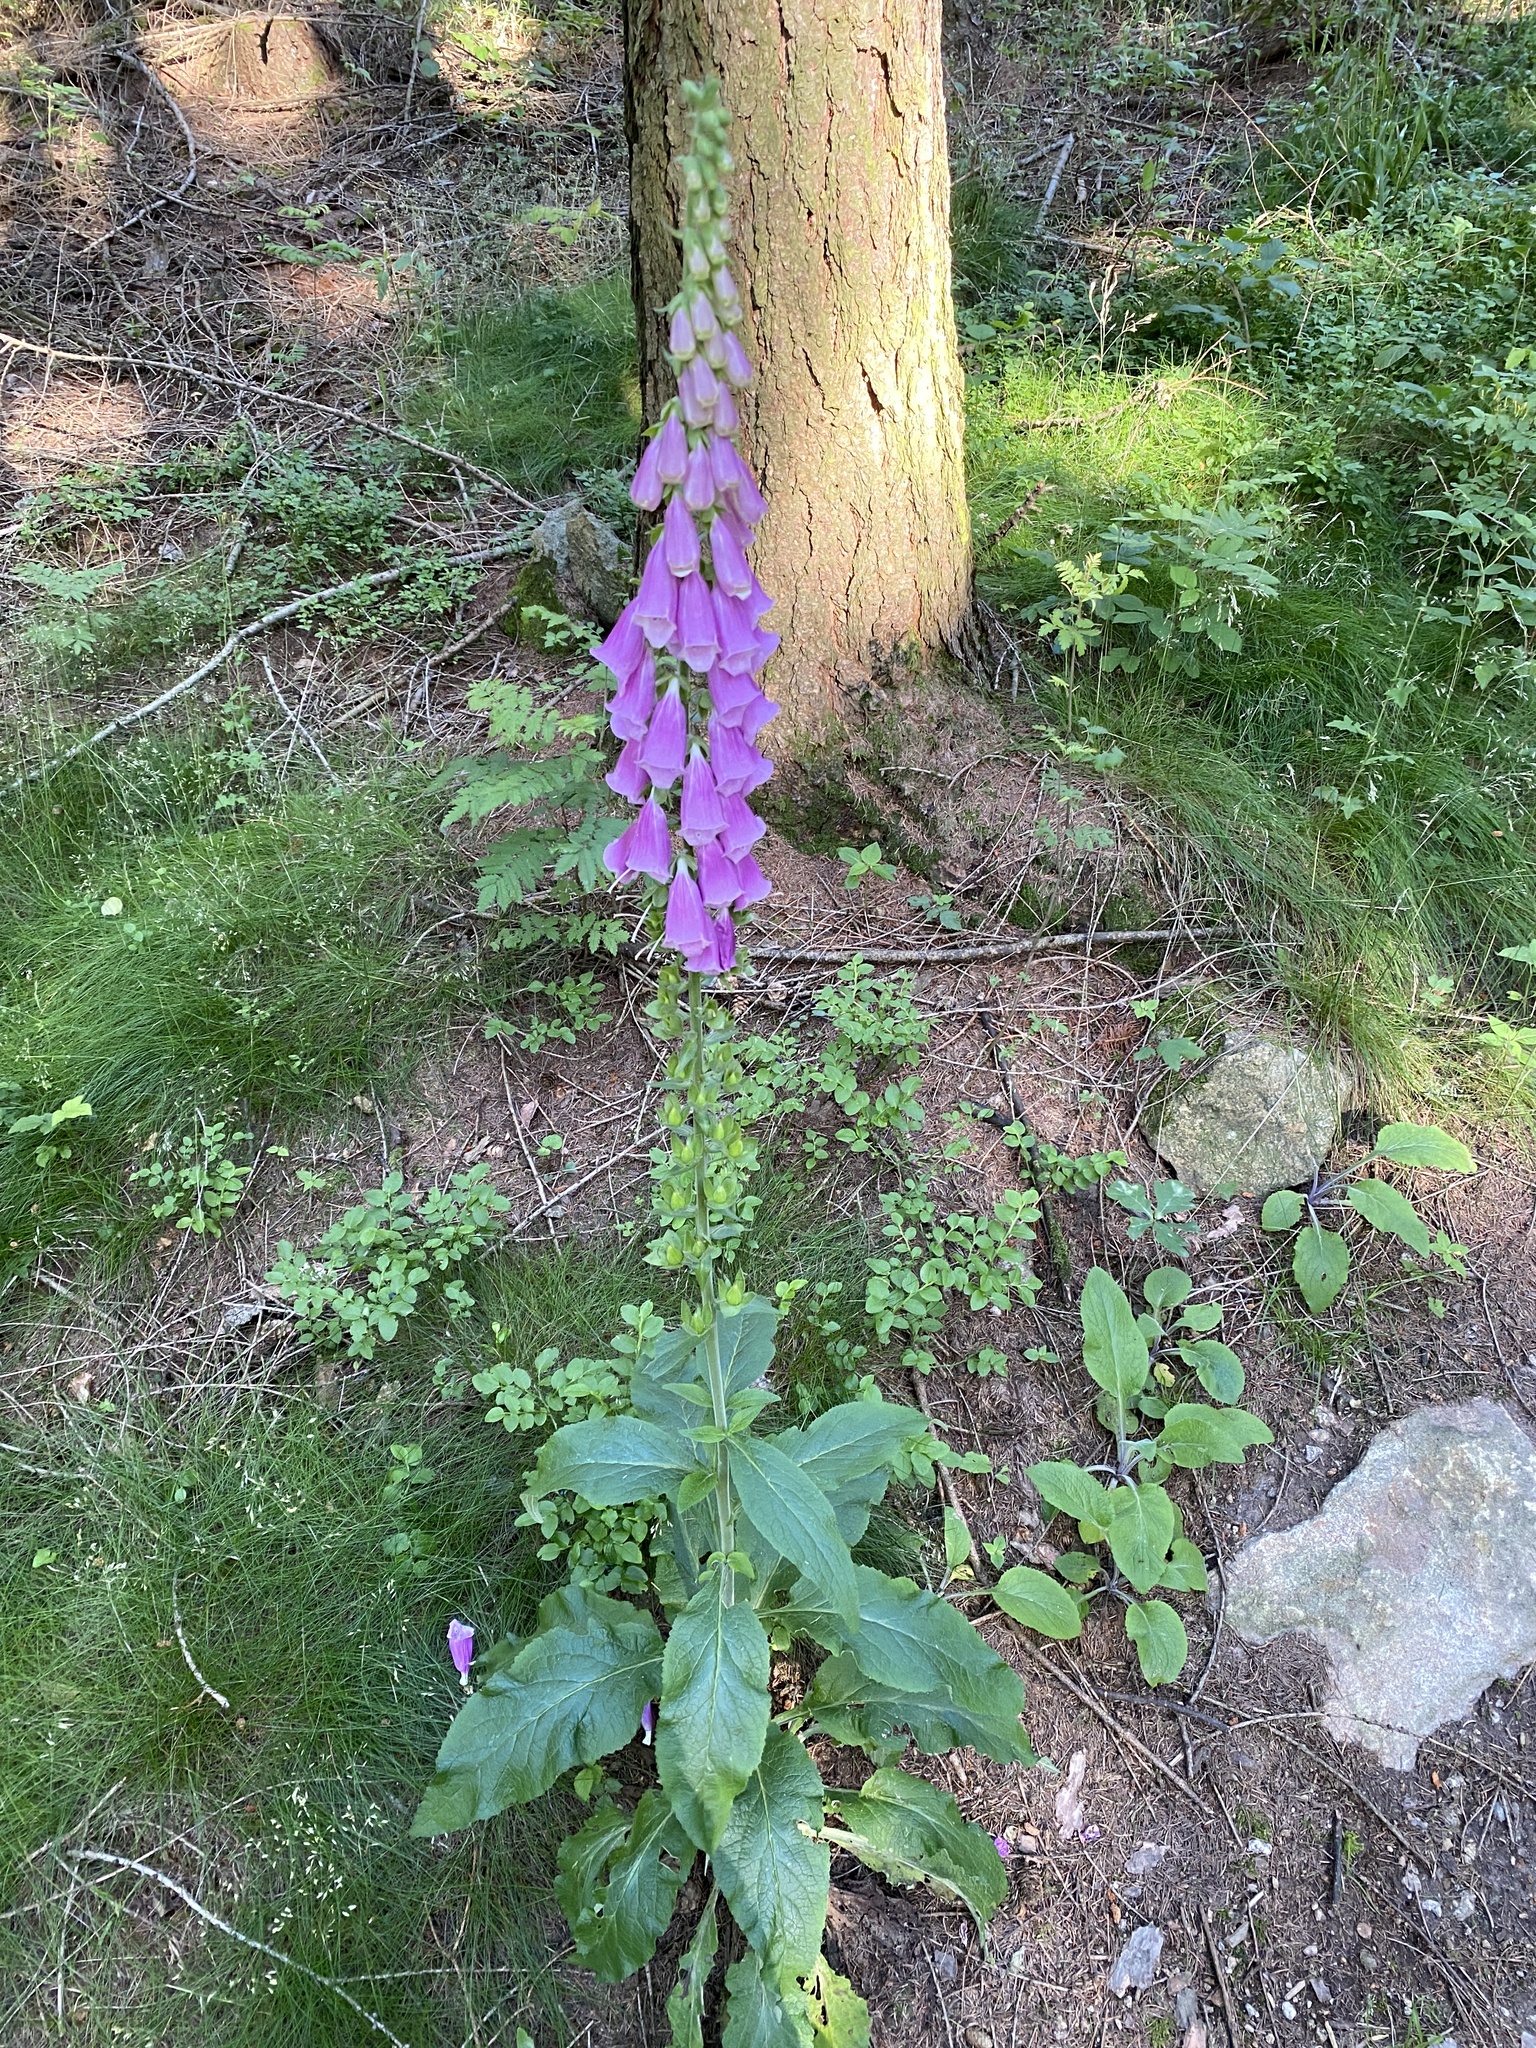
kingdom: Plantae
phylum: Tracheophyta
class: Magnoliopsida
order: Lamiales
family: Plantaginaceae
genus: Digitalis
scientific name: Digitalis purpurea
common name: Foxglove
